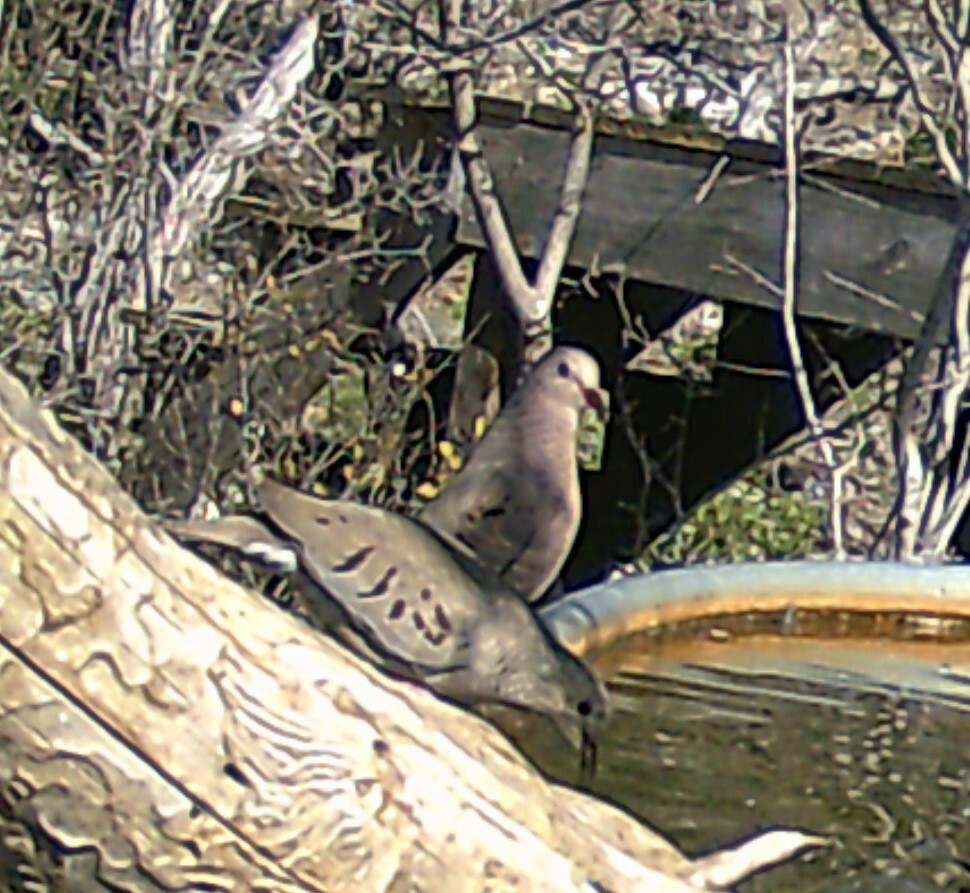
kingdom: Animalia
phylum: Chordata
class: Aves
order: Columbiformes
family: Columbidae
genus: Columbina
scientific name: Columbina passerina
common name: Common ground-dove
